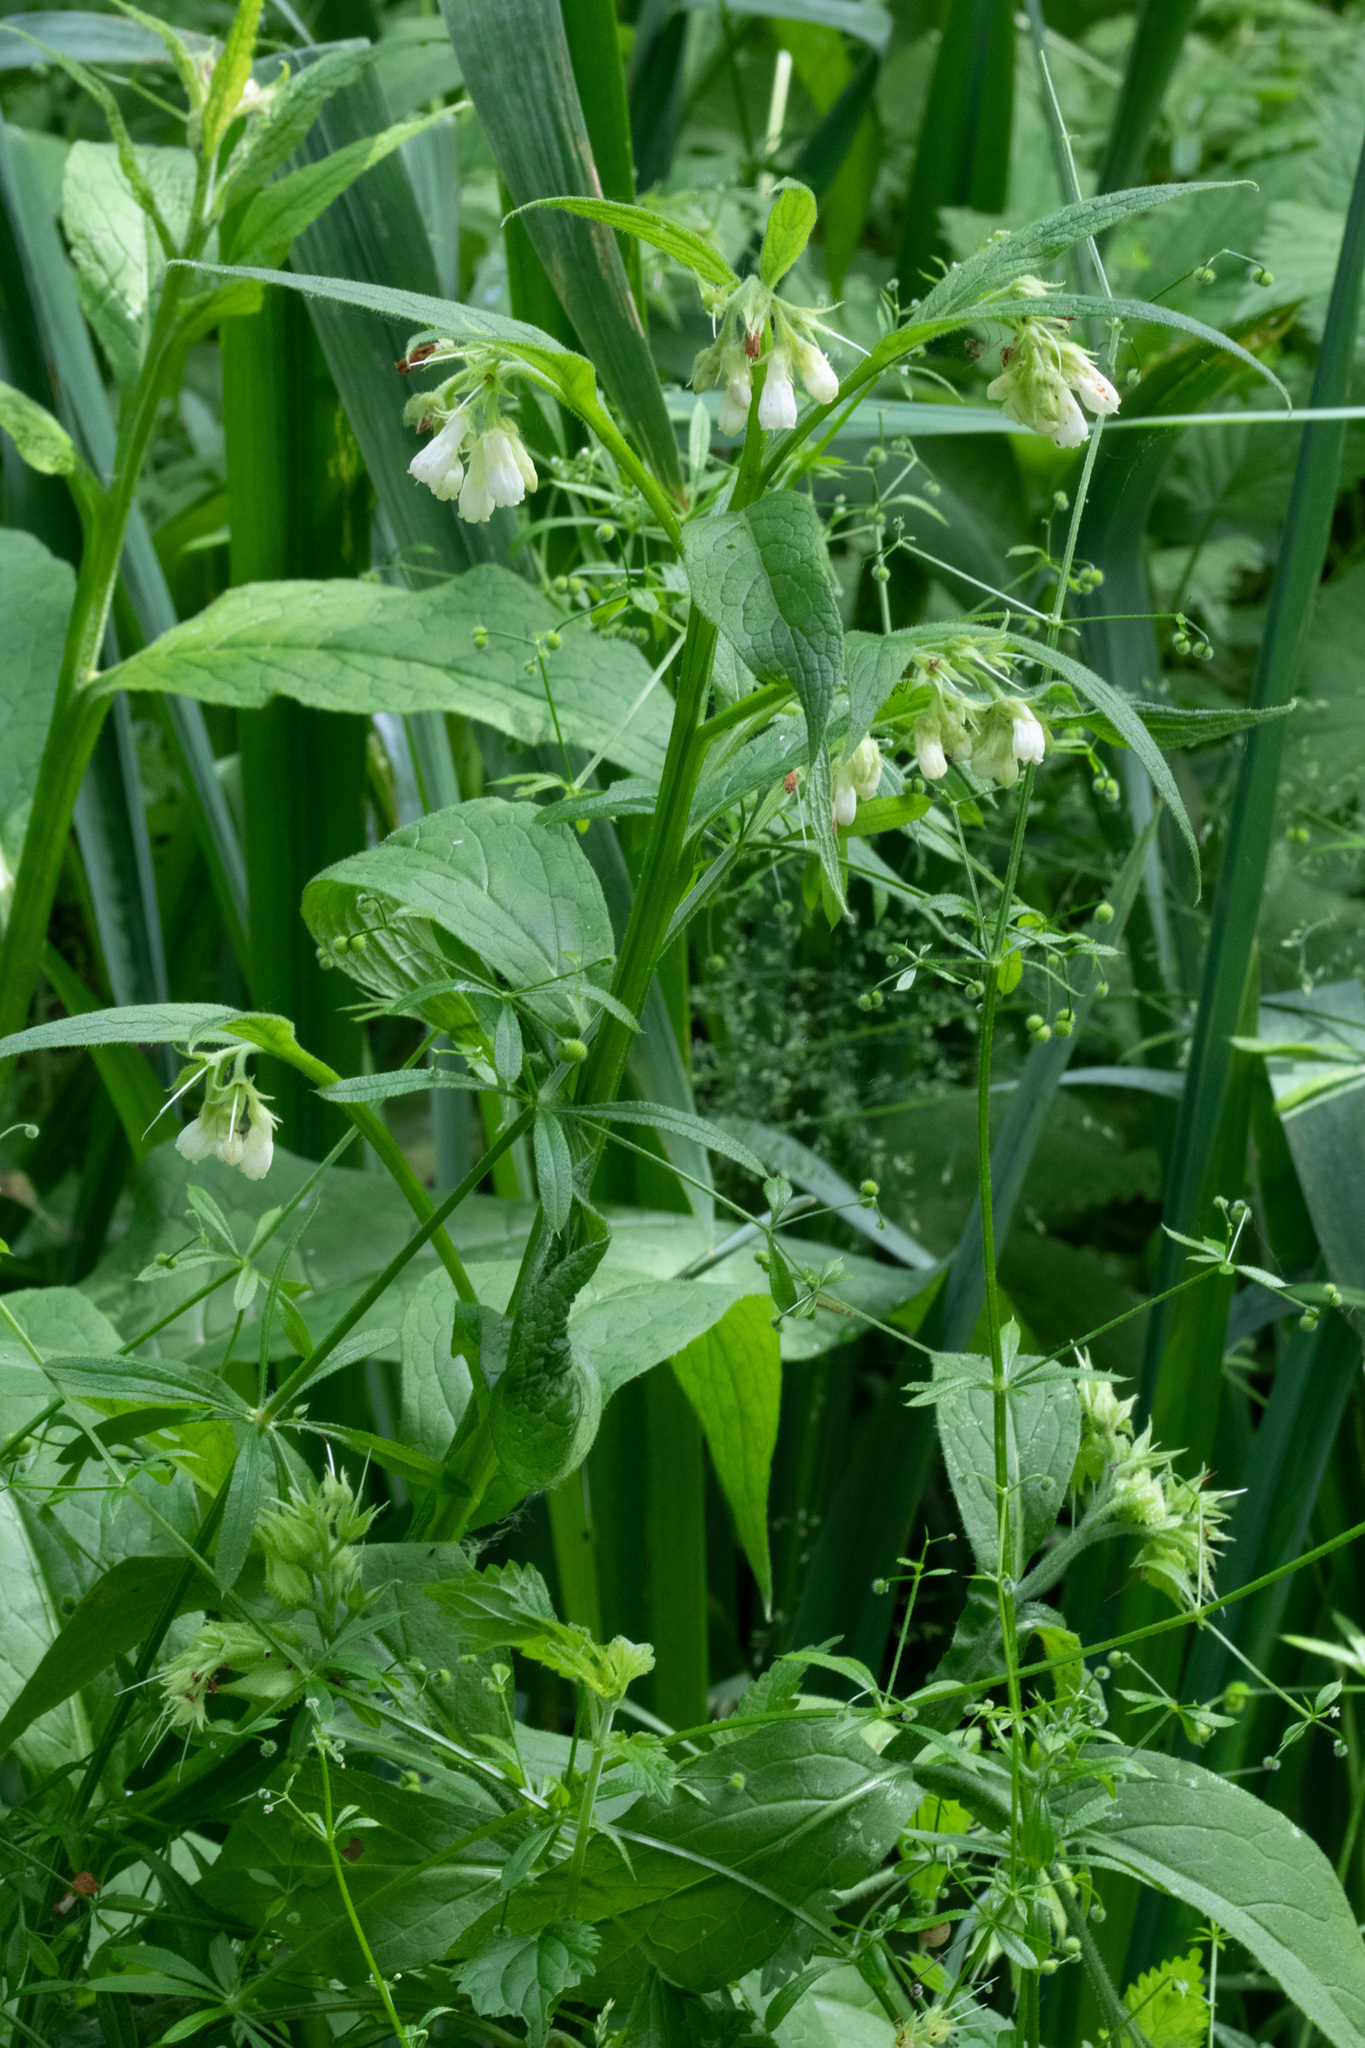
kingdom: Plantae
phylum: Tracheophyta
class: Magnoliopsida
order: Boraginales
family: Boraginaceae
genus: Symphytum
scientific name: Symphytum officinale
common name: Common comfrey
